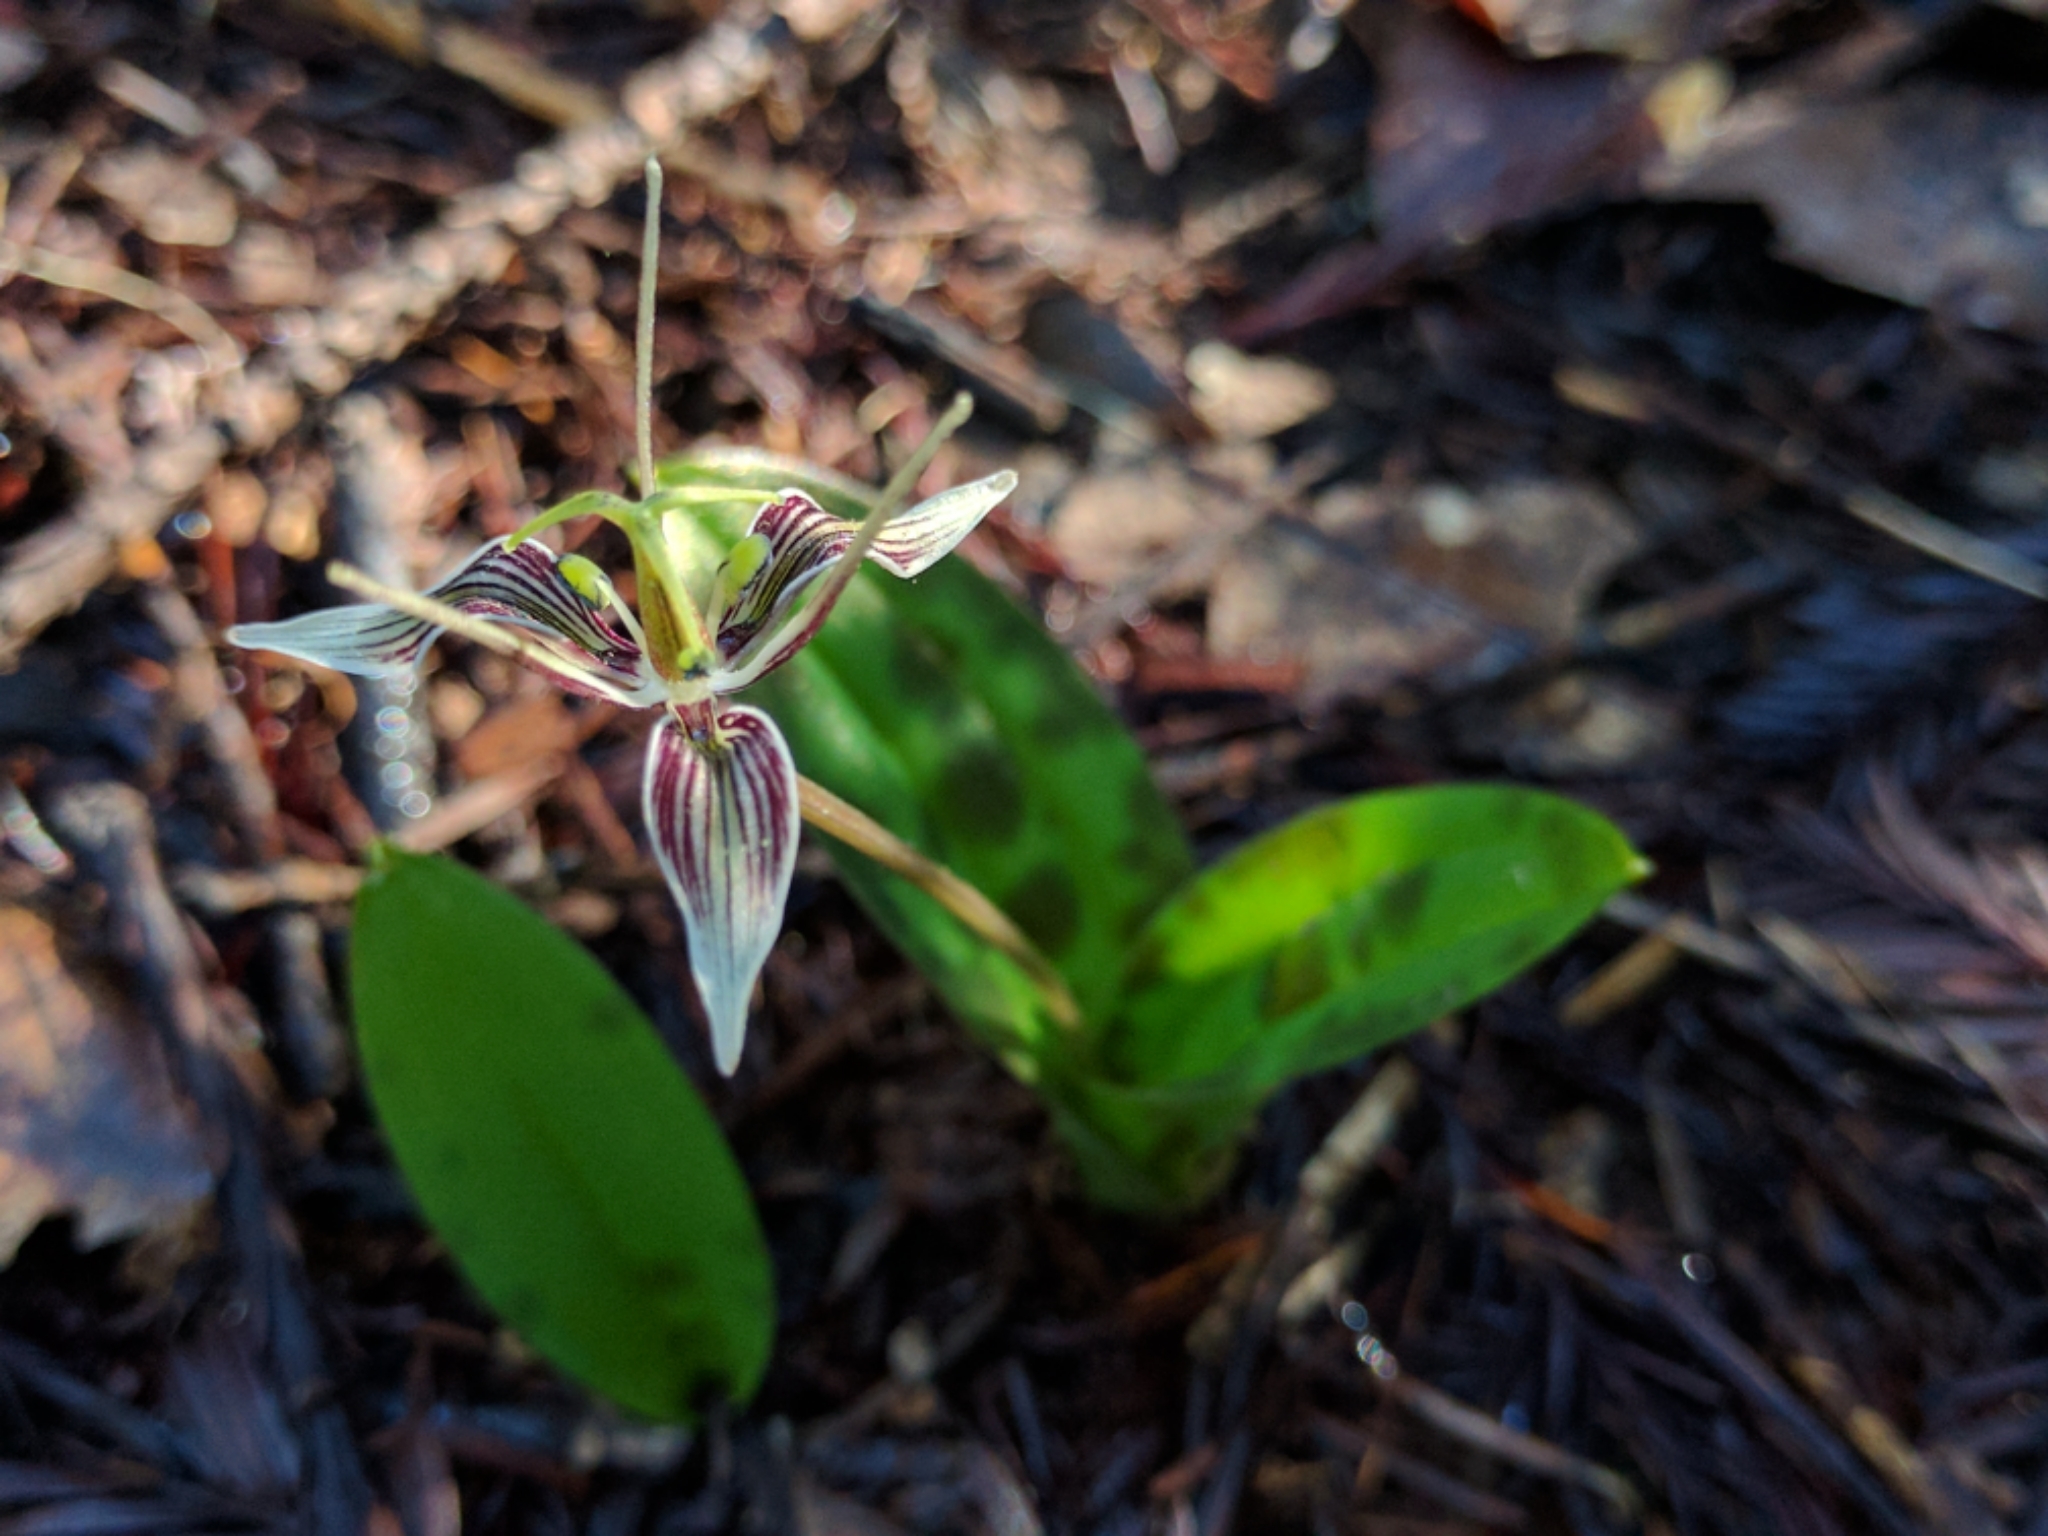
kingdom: Plantae
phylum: Tracheophyta
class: Liliopsida
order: Liliales
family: Liliaceae
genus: Scoliopus
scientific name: Scoliopus bigelovii
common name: Foetid adder's-tongue
